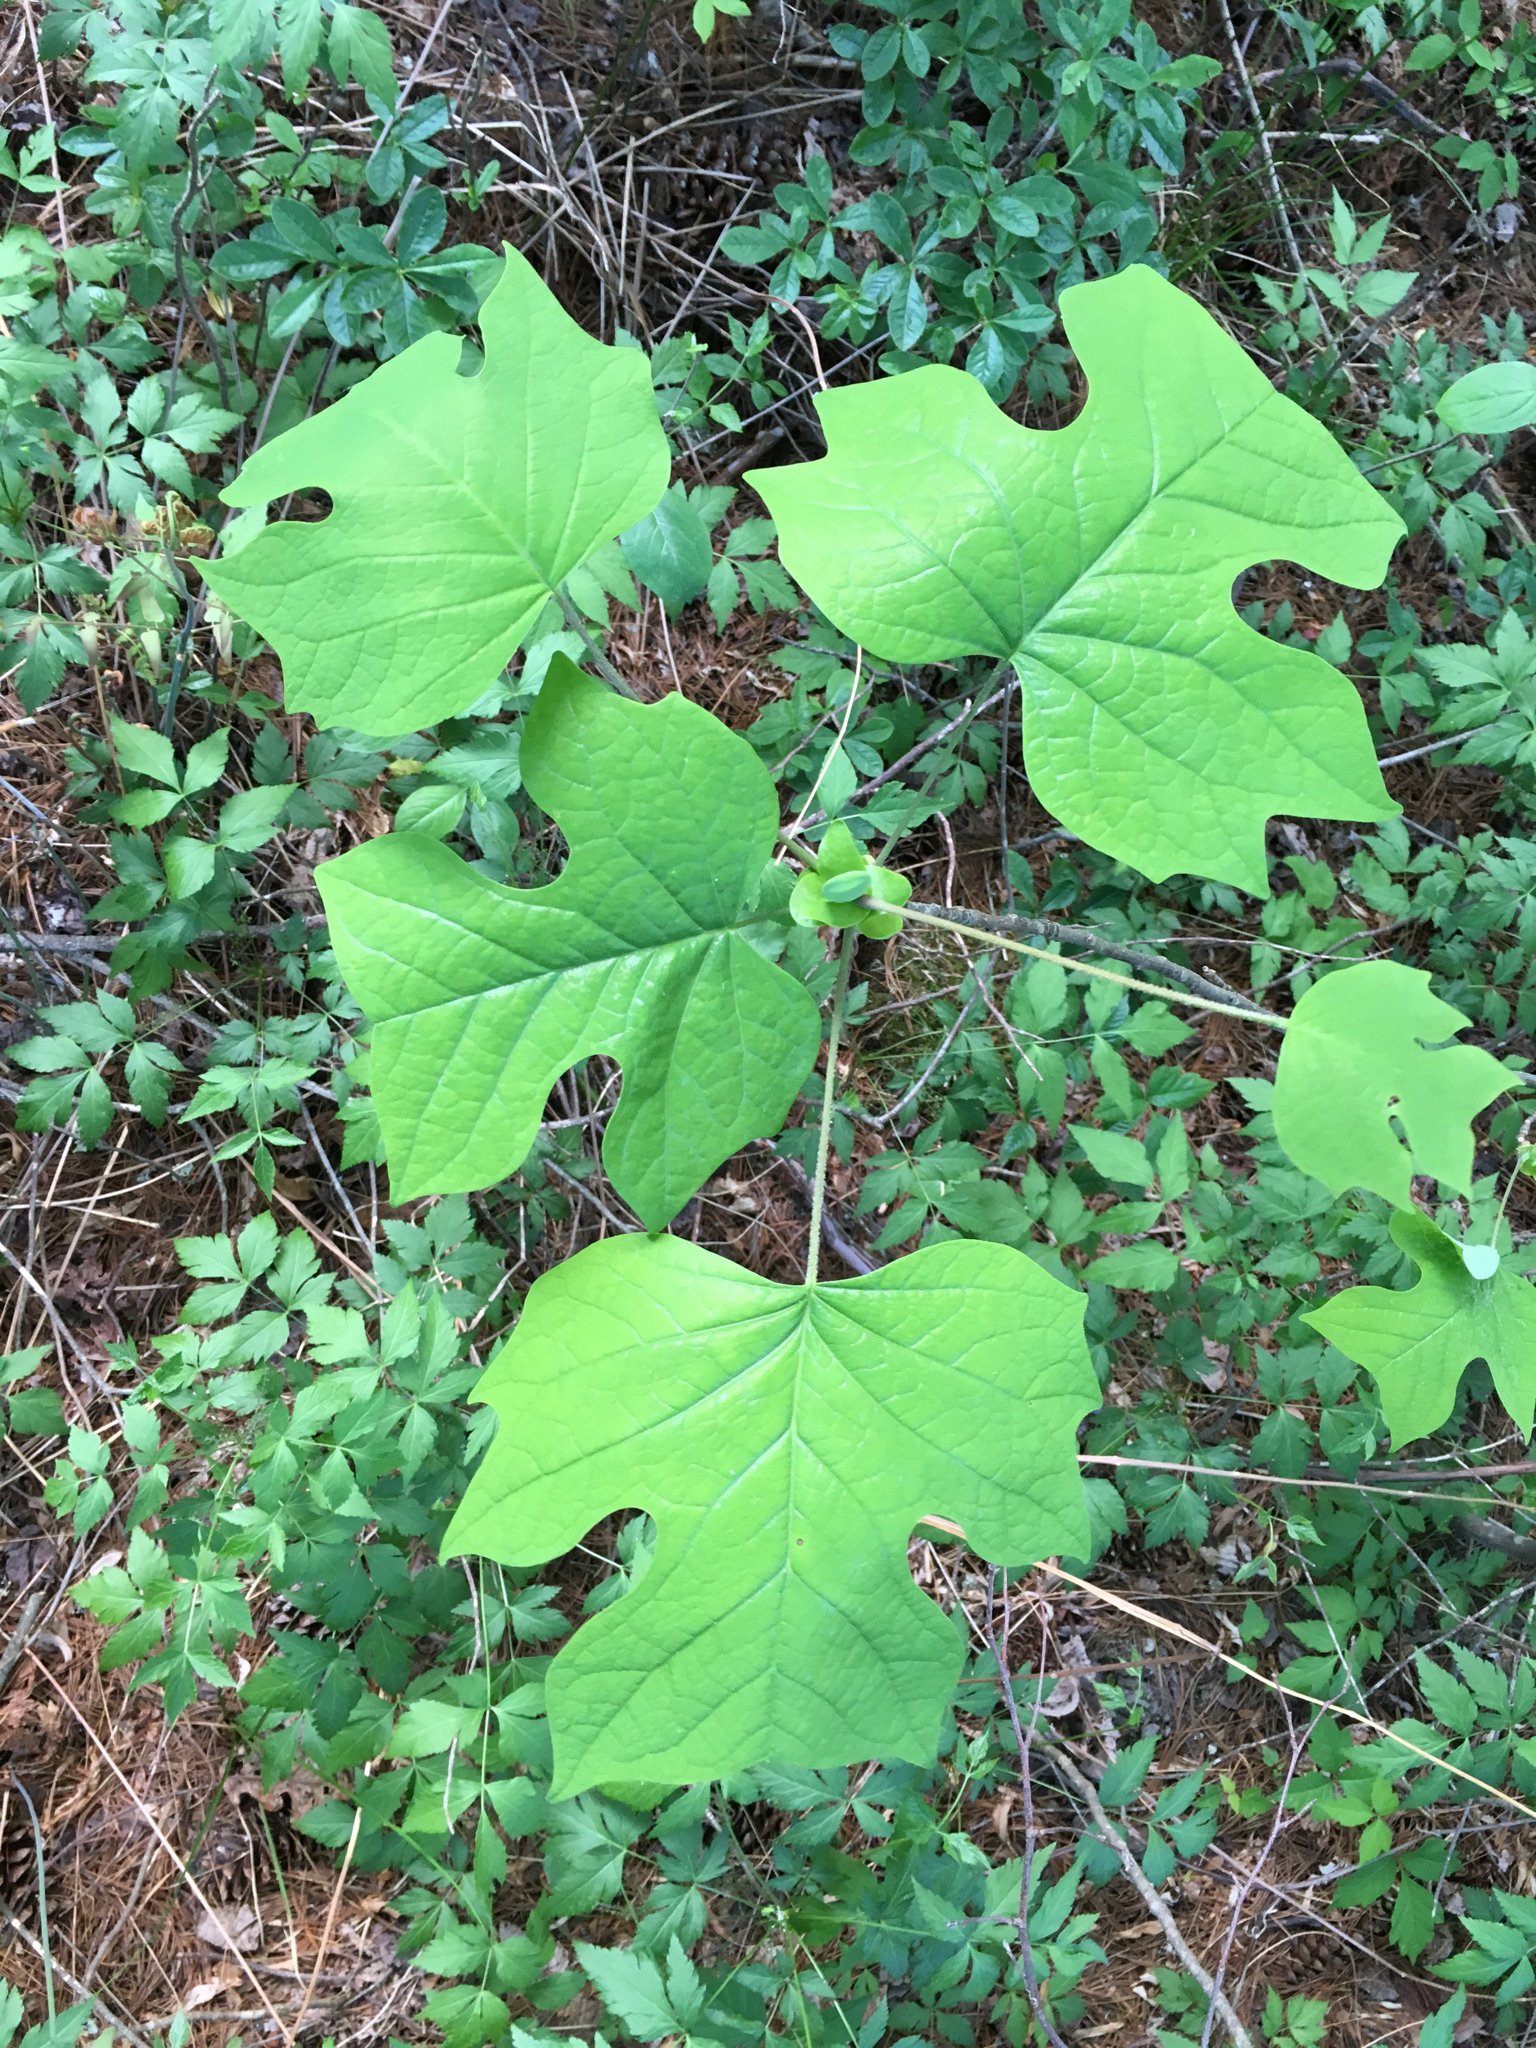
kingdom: Plantae
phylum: Tracheophyta
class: Magnoliopsida
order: Magnoliales
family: Magnoliaceae
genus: Liriodendron
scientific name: Liriodendron tulipifera
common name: Tulip tree
